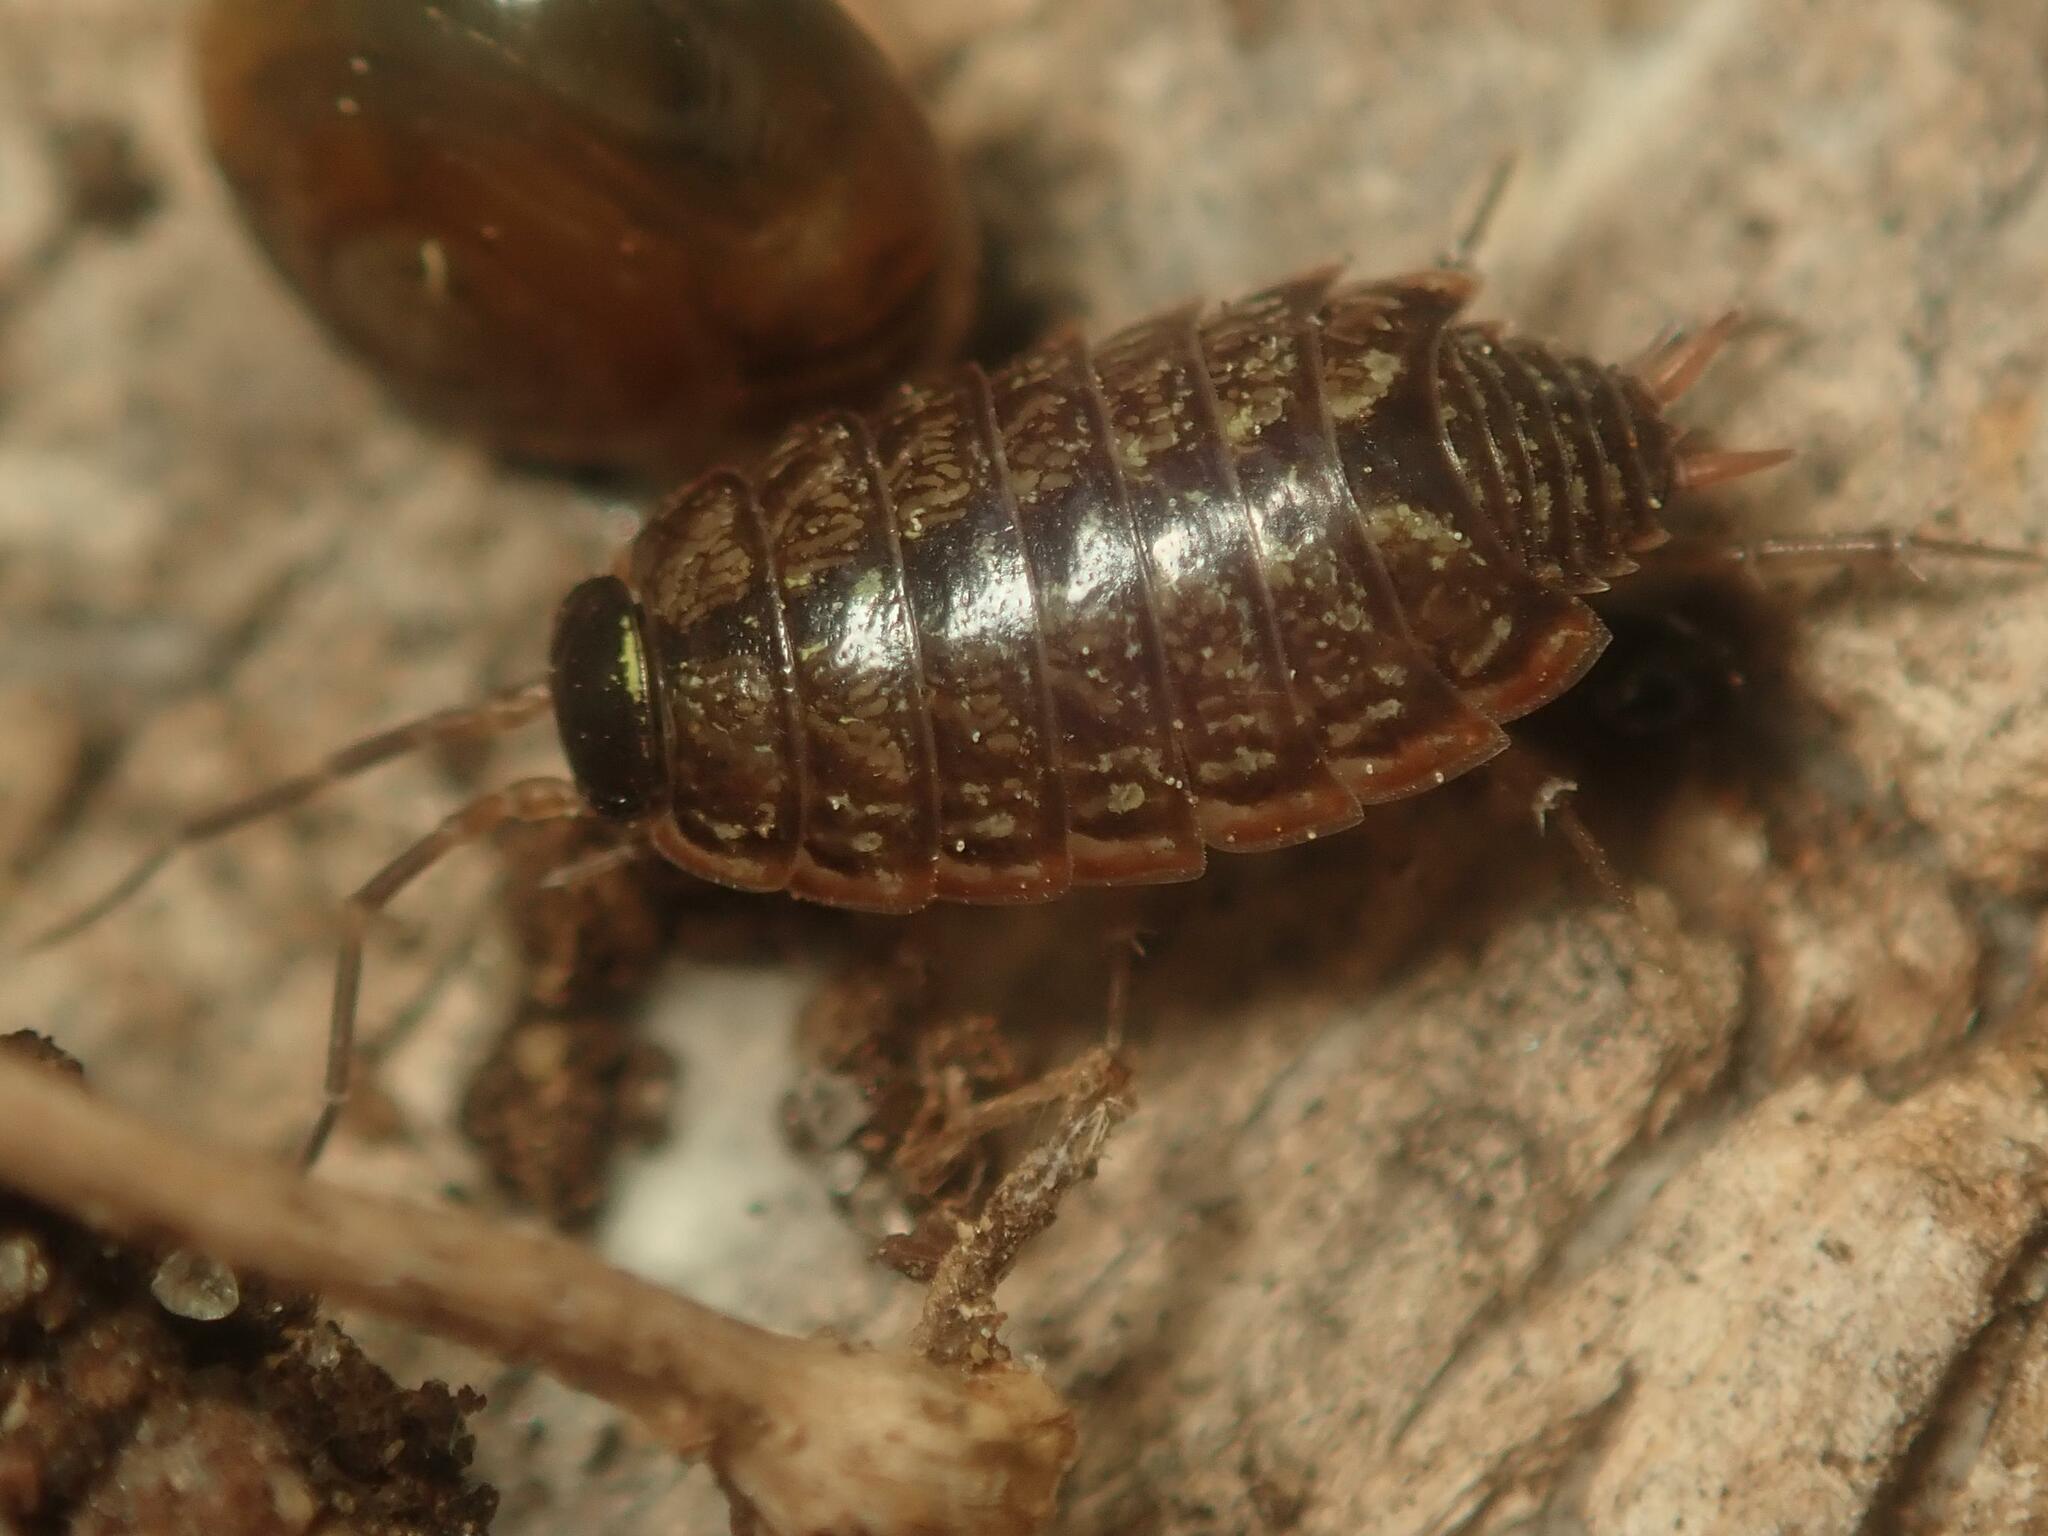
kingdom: Animalia
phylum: Arthropoda
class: Malacostraca
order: Isopoda
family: Philosciidae
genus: Philoscia
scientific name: Philoscia muscorum
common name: Common striped woodlouse
